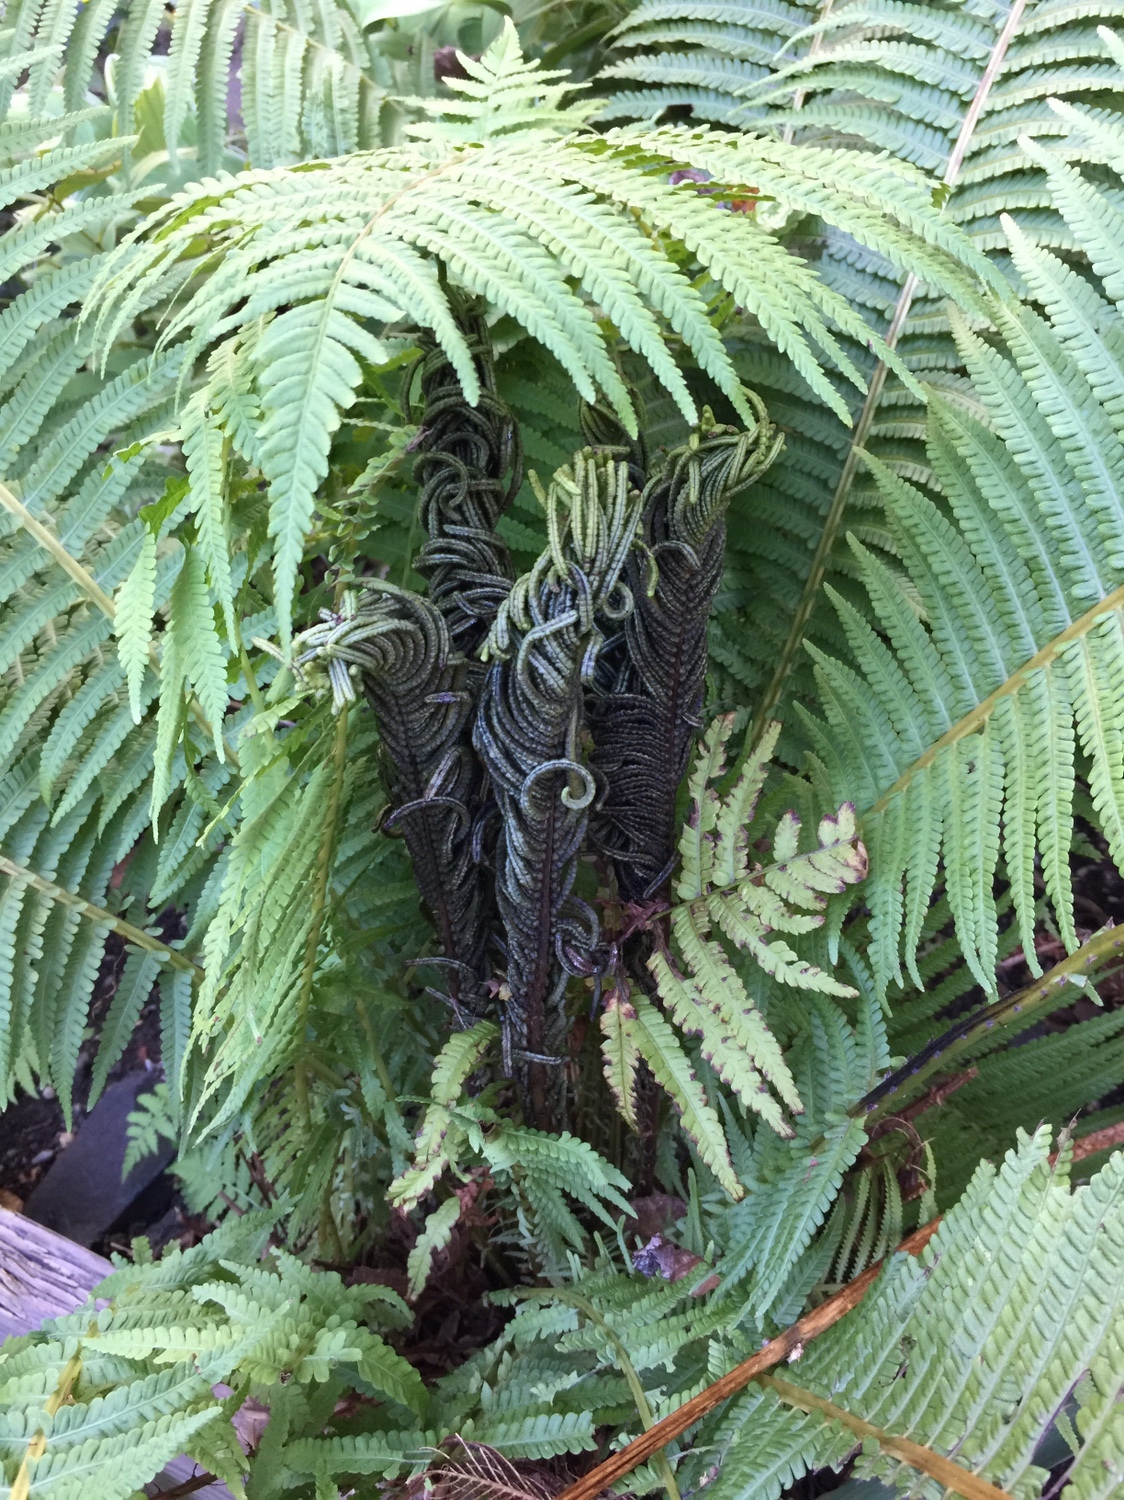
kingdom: Plantae
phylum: Tracheophyta
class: Polypodiopsida
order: Polypodiales
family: Onocleaceae
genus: Matteuccia
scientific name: Matteuccia struthiopteris
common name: Ostrich fern
